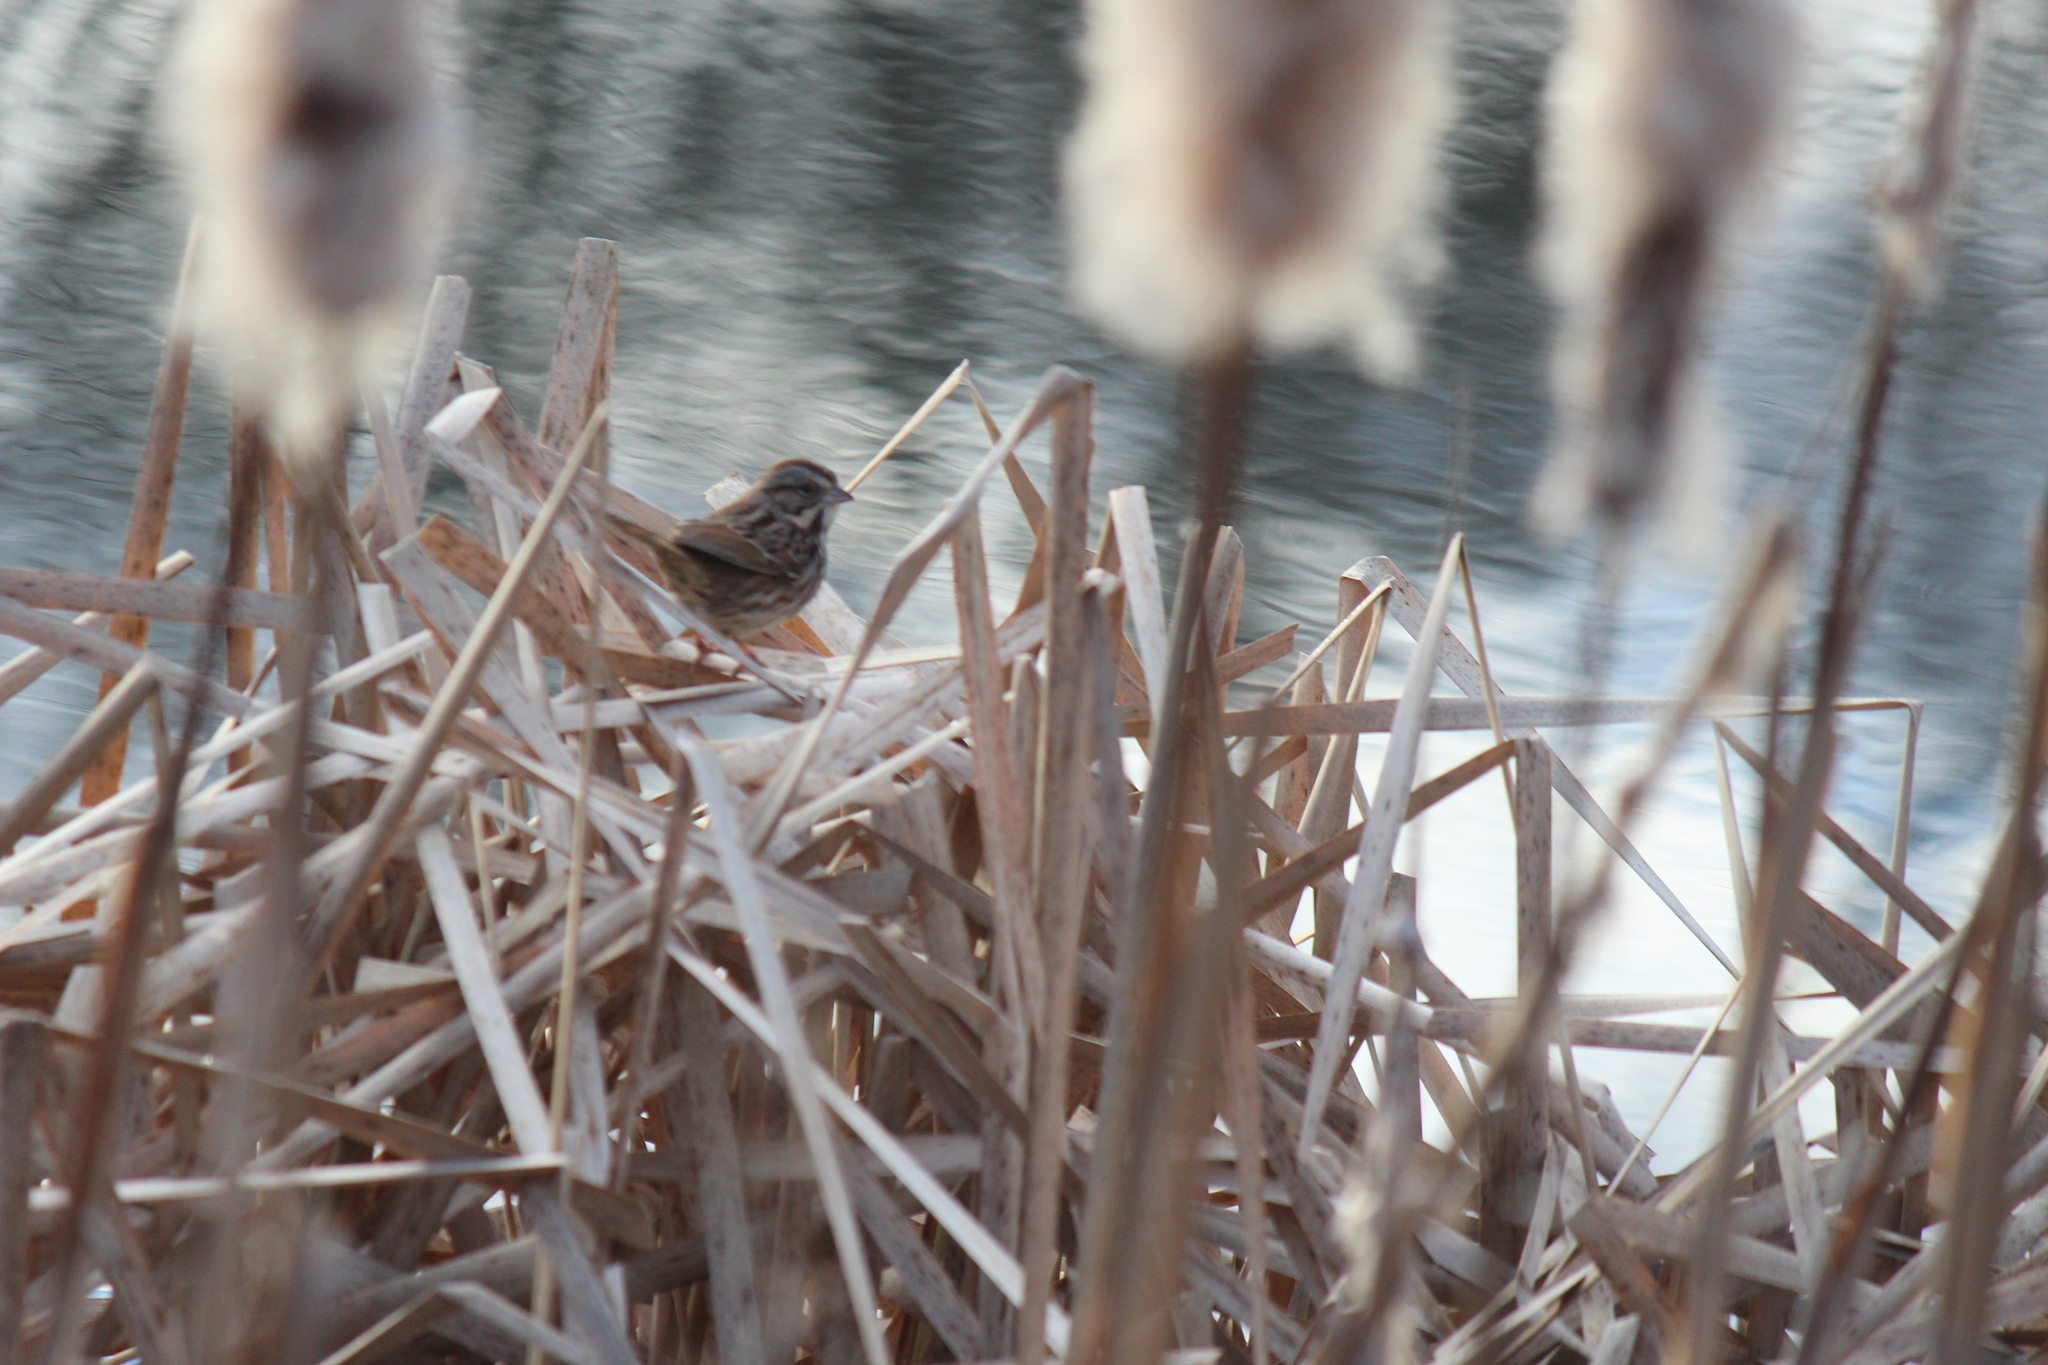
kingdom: Animalia
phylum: Chordata
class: Aves
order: Passeriformes
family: Passerellidae
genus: Melospiza
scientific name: Melospiza melodia
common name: Song sparrow
